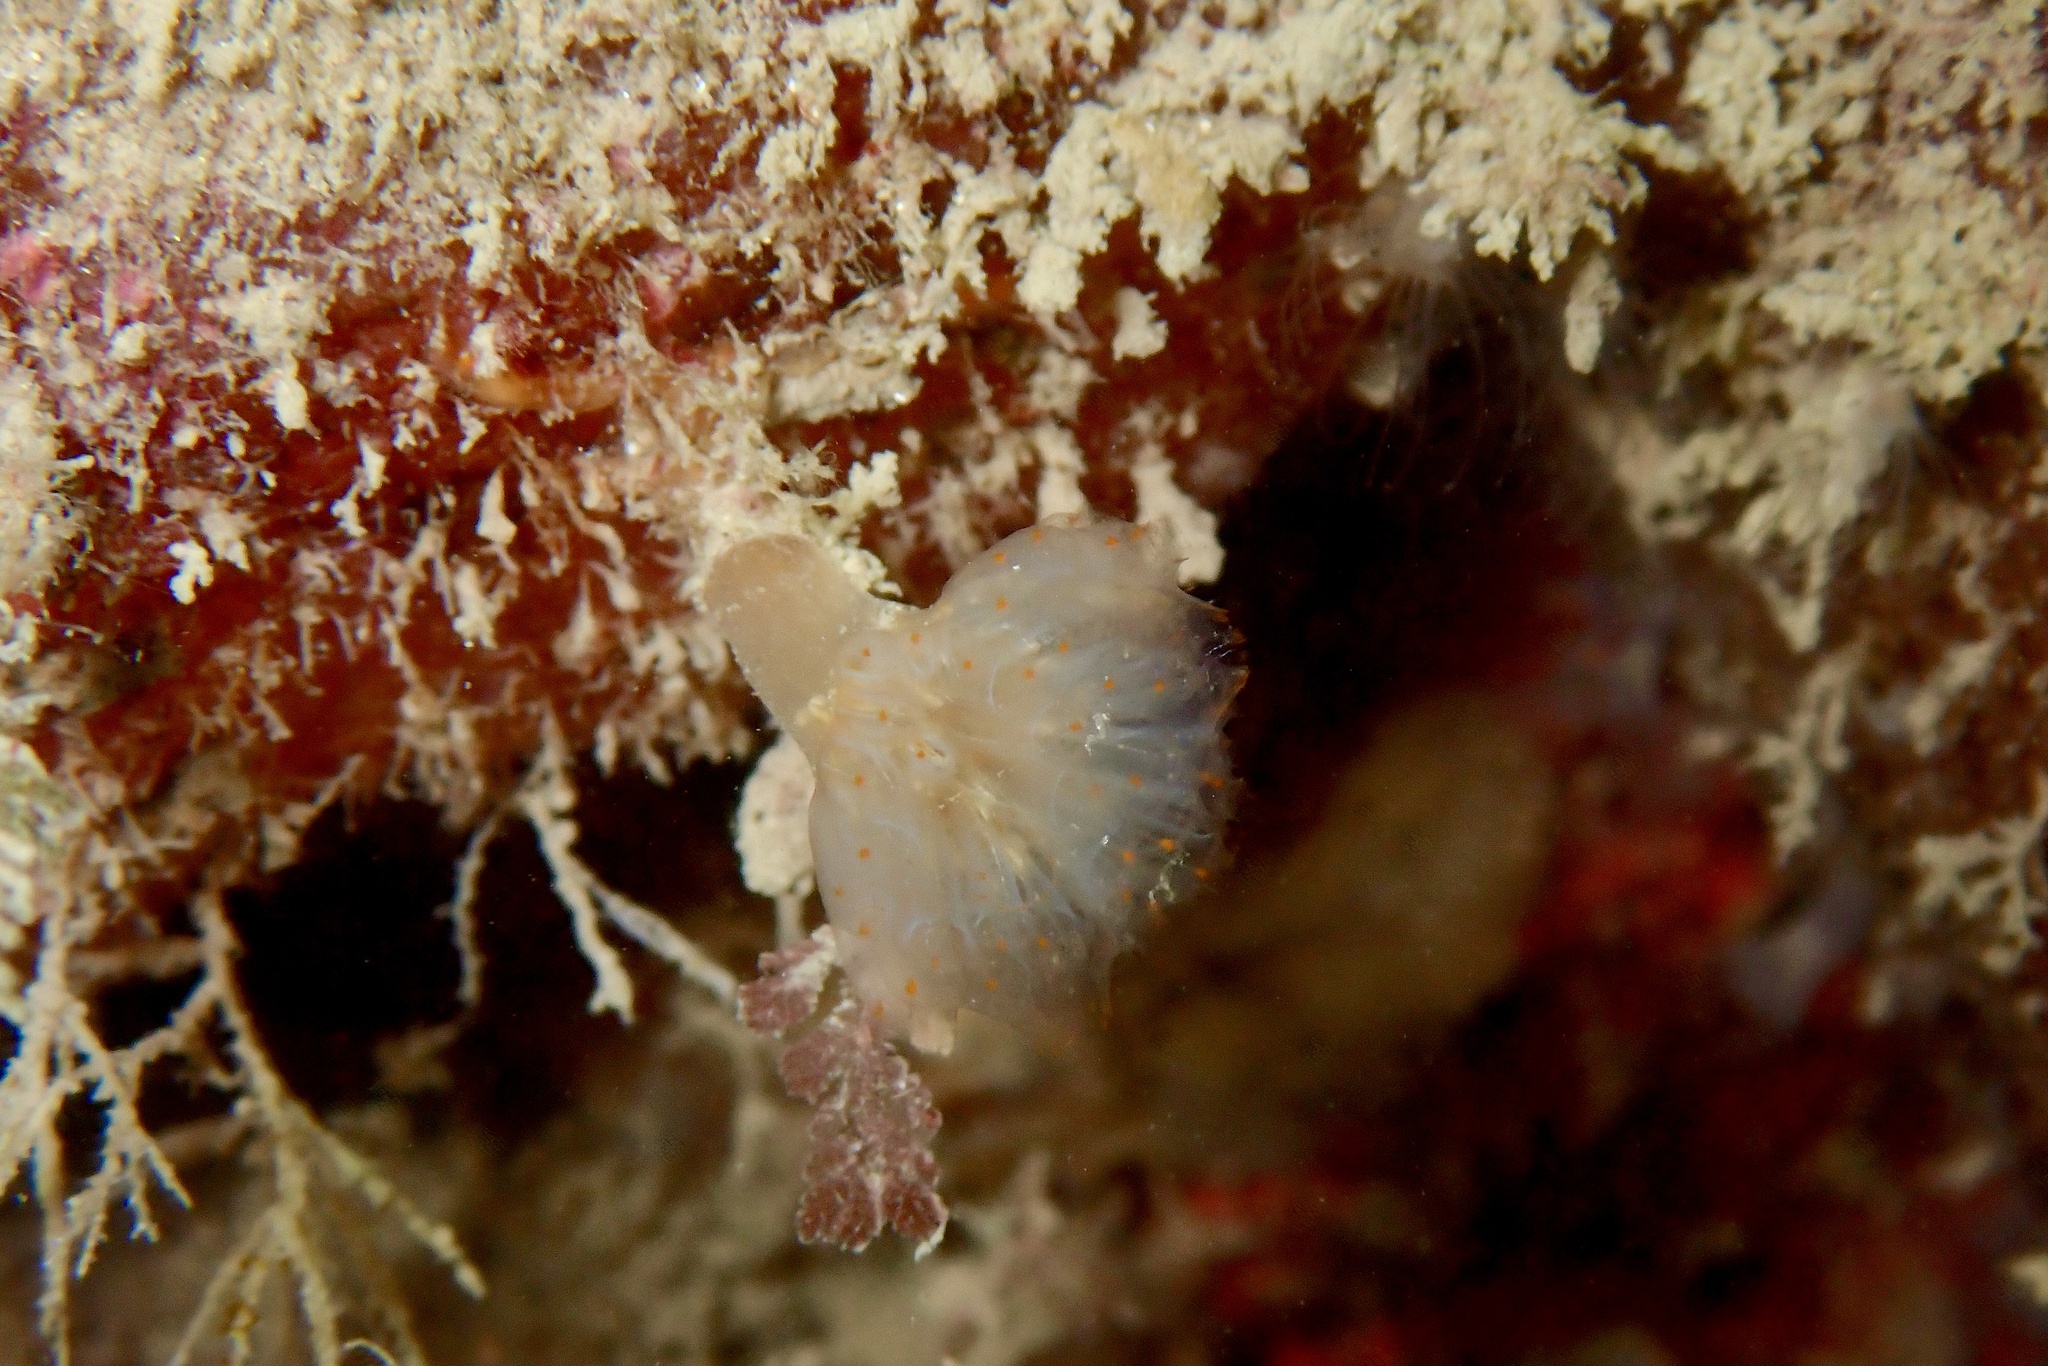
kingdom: Animalia
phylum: Chordata
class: Ascidiacea
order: Aplousobranchia
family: Polyclinidae
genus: Aplidium
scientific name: Aplidium punctum
